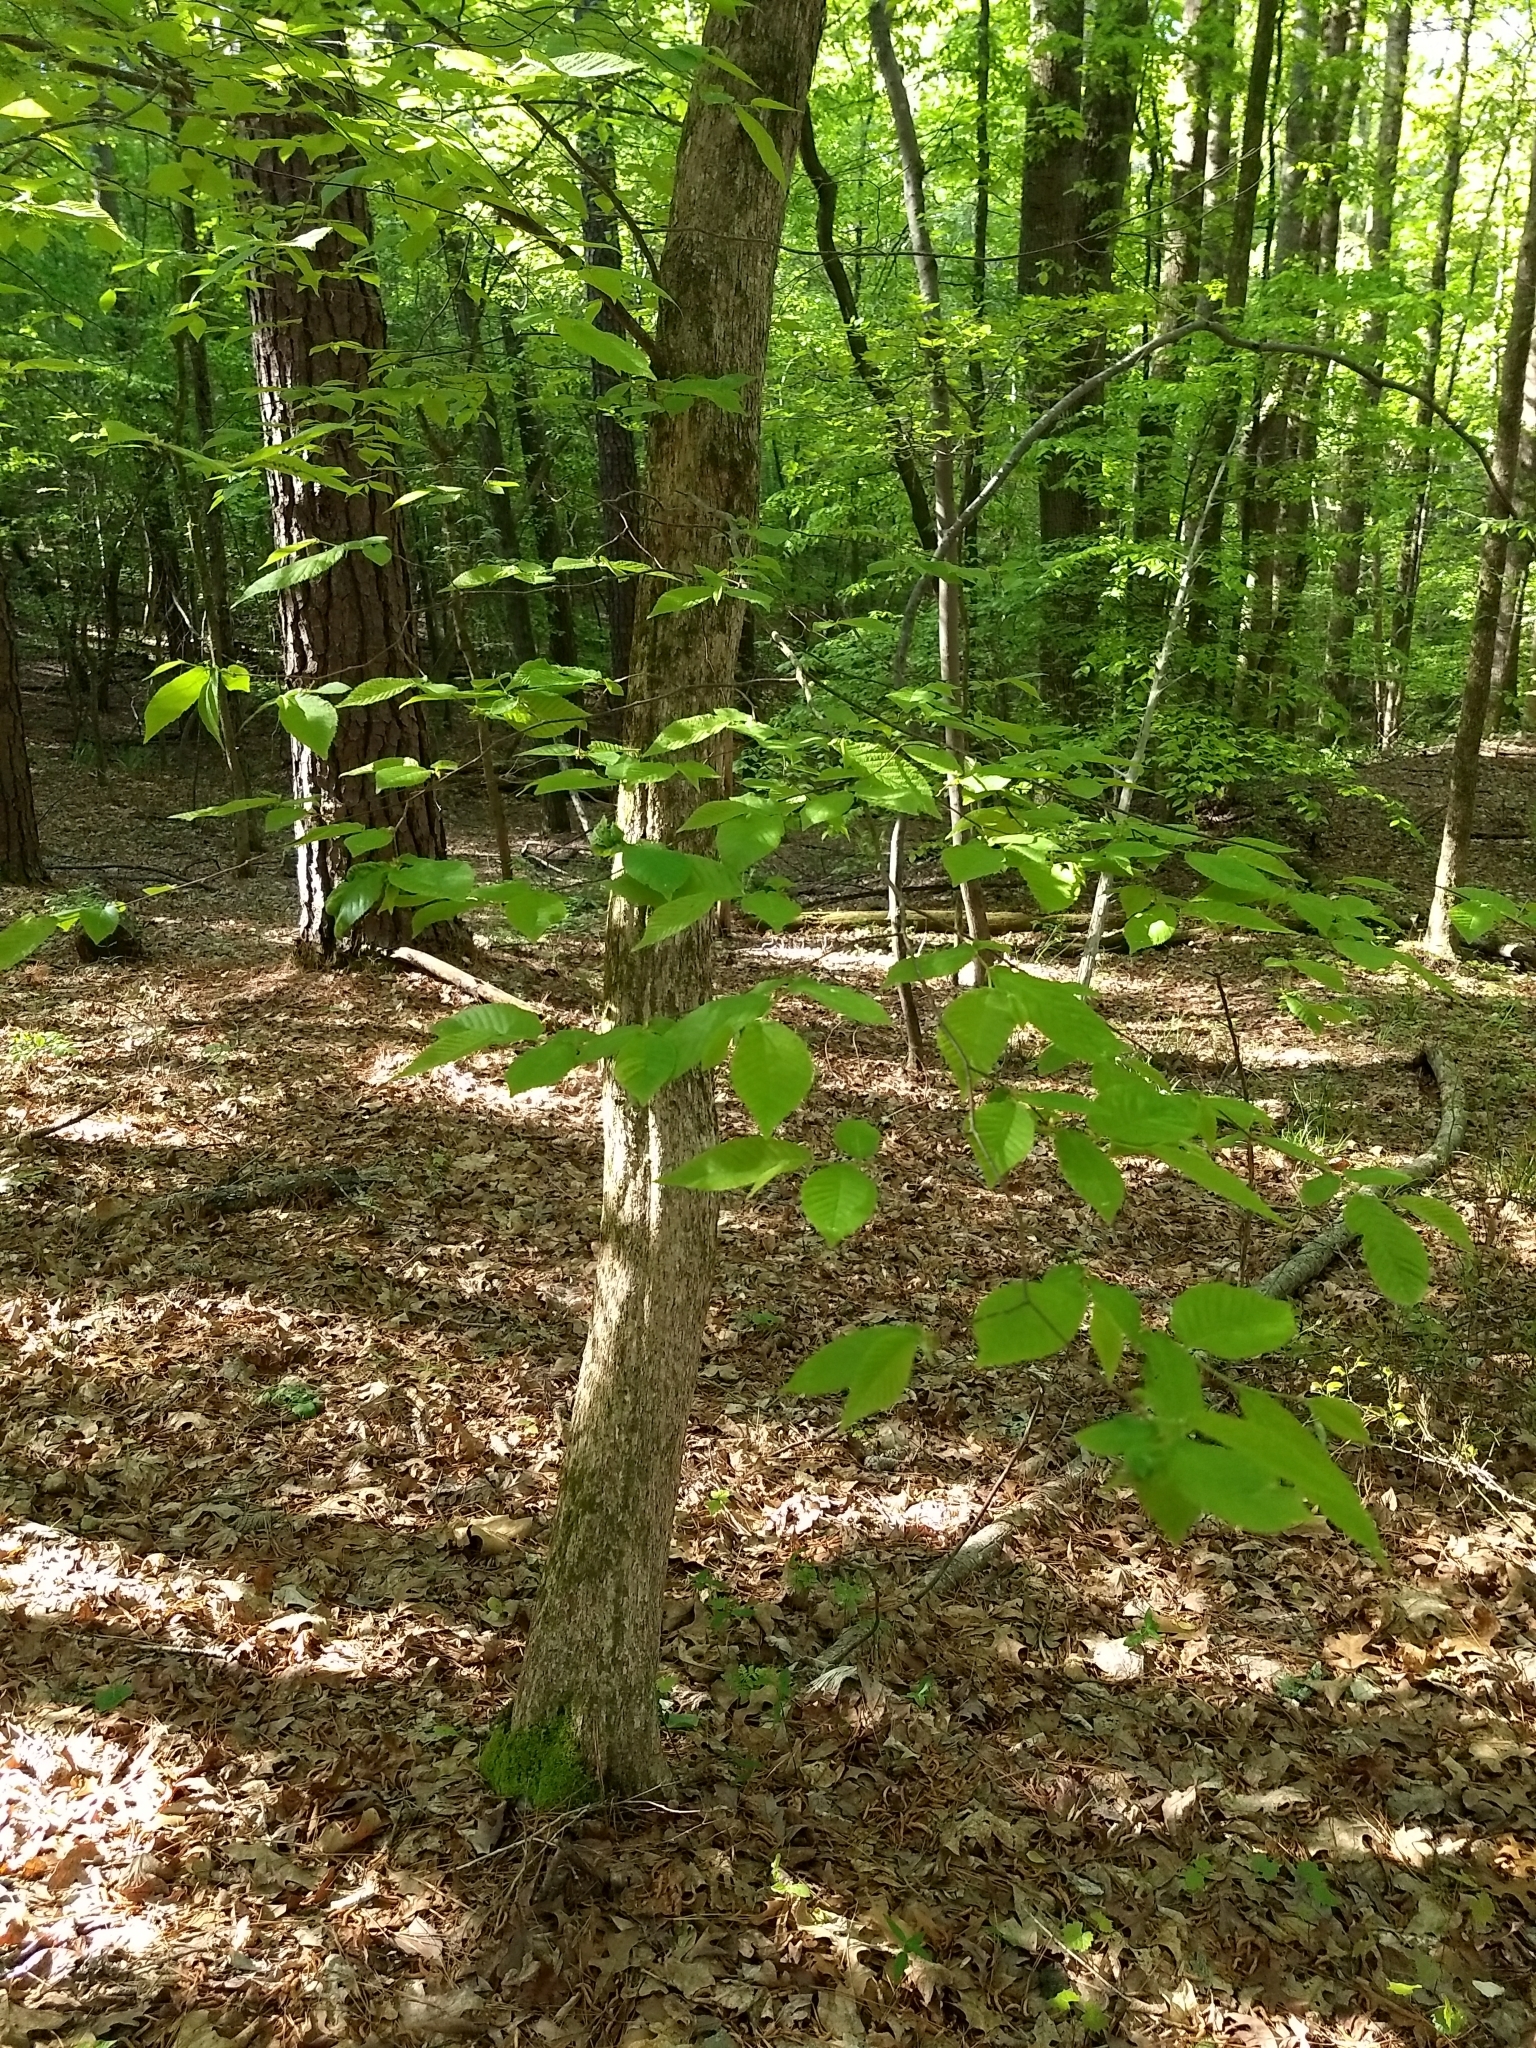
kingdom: Plantae
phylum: Tracheophyta
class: Magnoliopsida
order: Fagales
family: Betulaceae
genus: Ostrya
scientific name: Ostrya virginiana
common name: Ironwood
